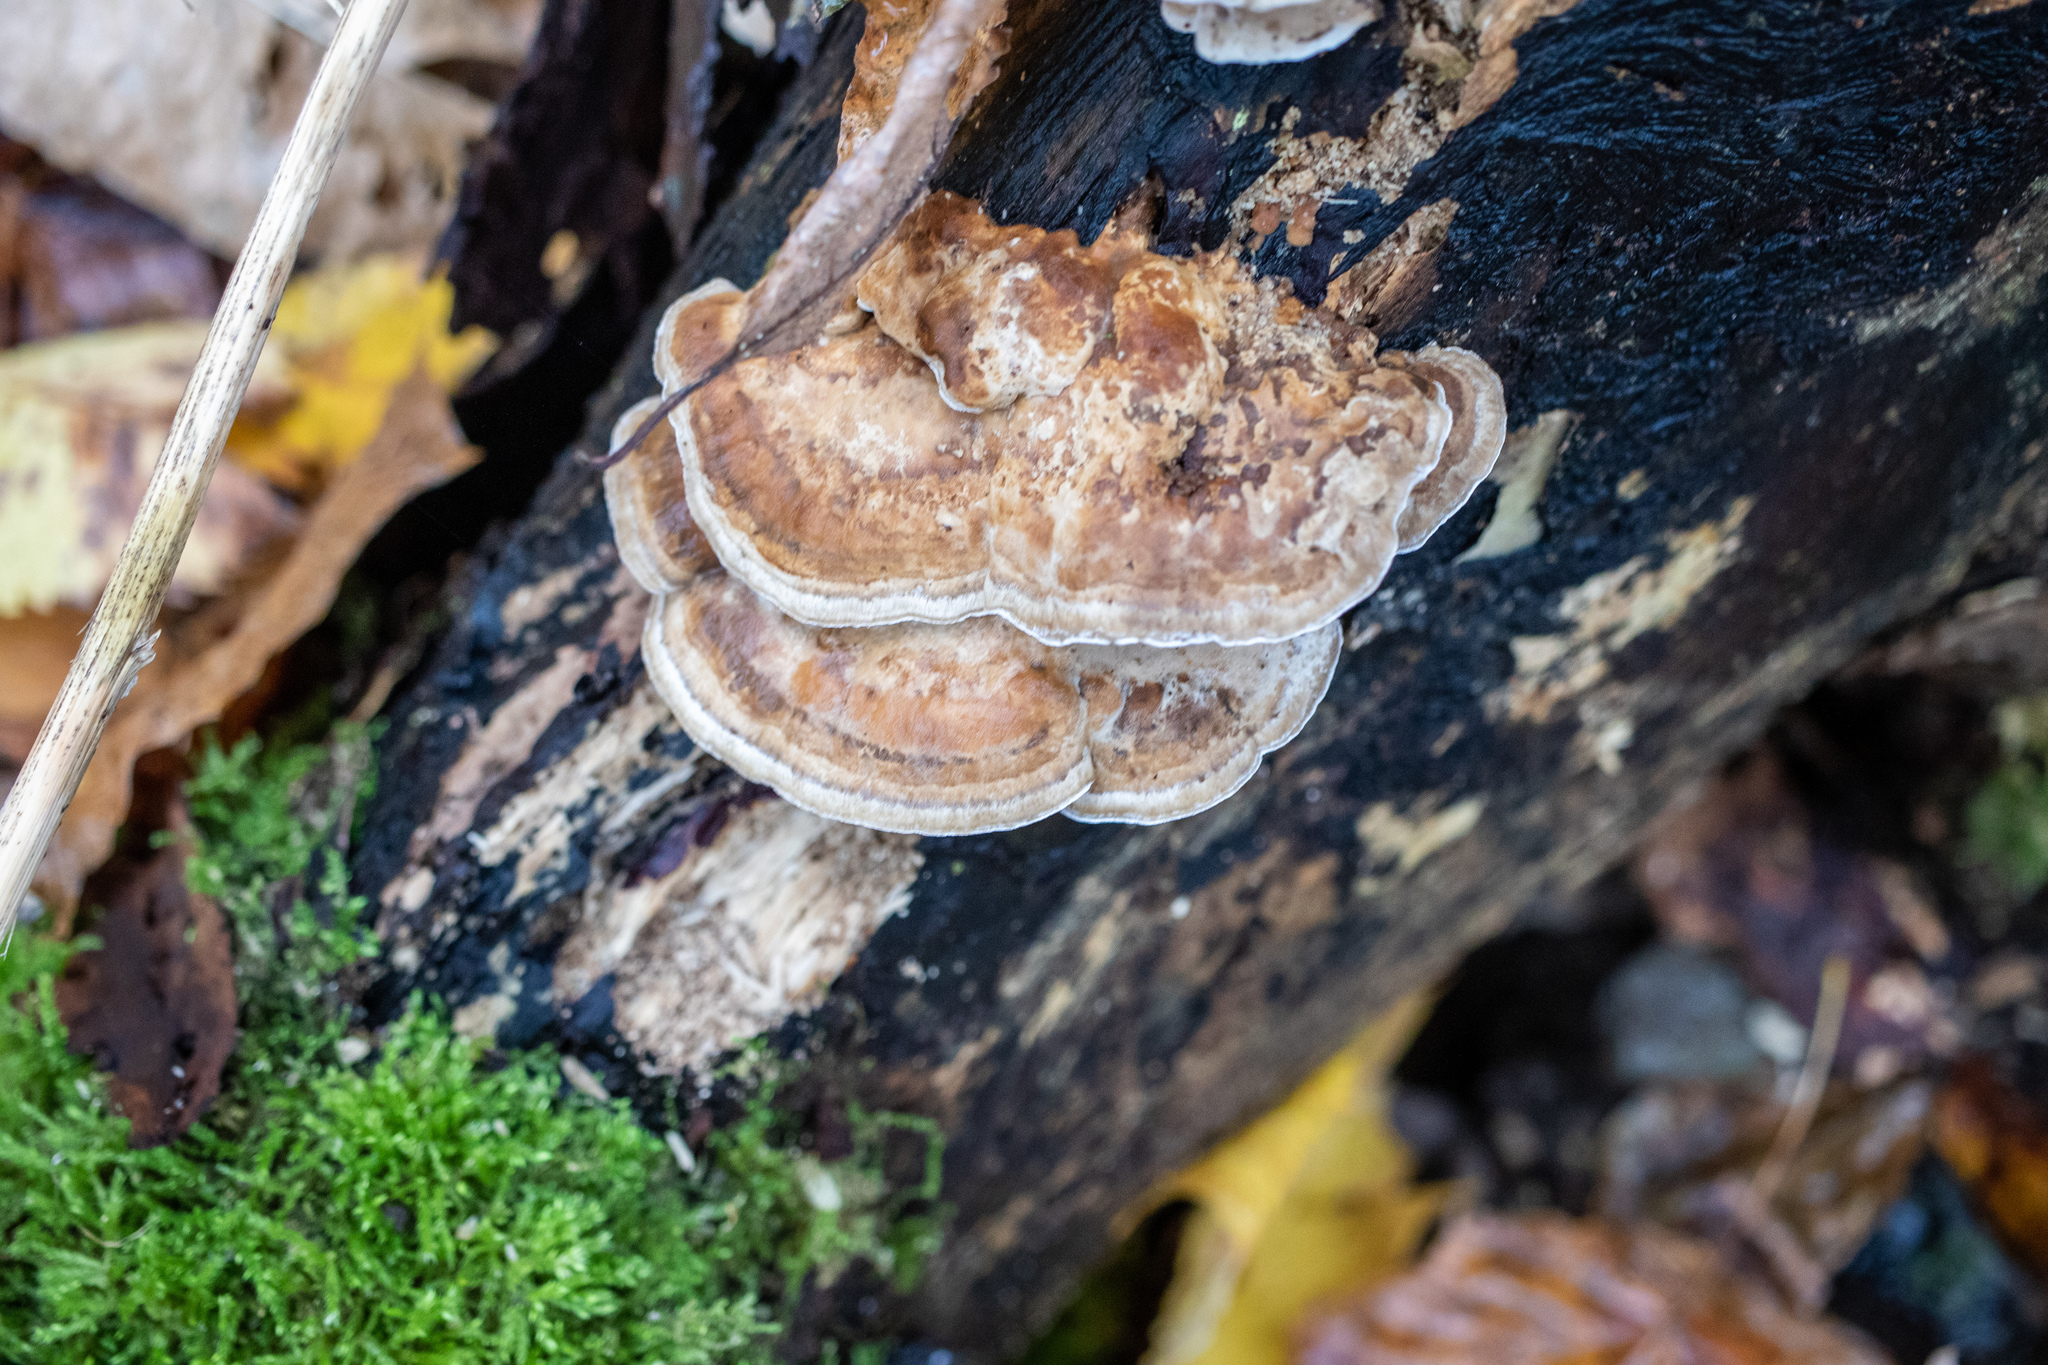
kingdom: Fungi
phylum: Basidiomycota
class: Agaricomycetes
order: Polyporales
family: Polyporaceae
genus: Trametes
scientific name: Trametes ochracea
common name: Ochre bracket
